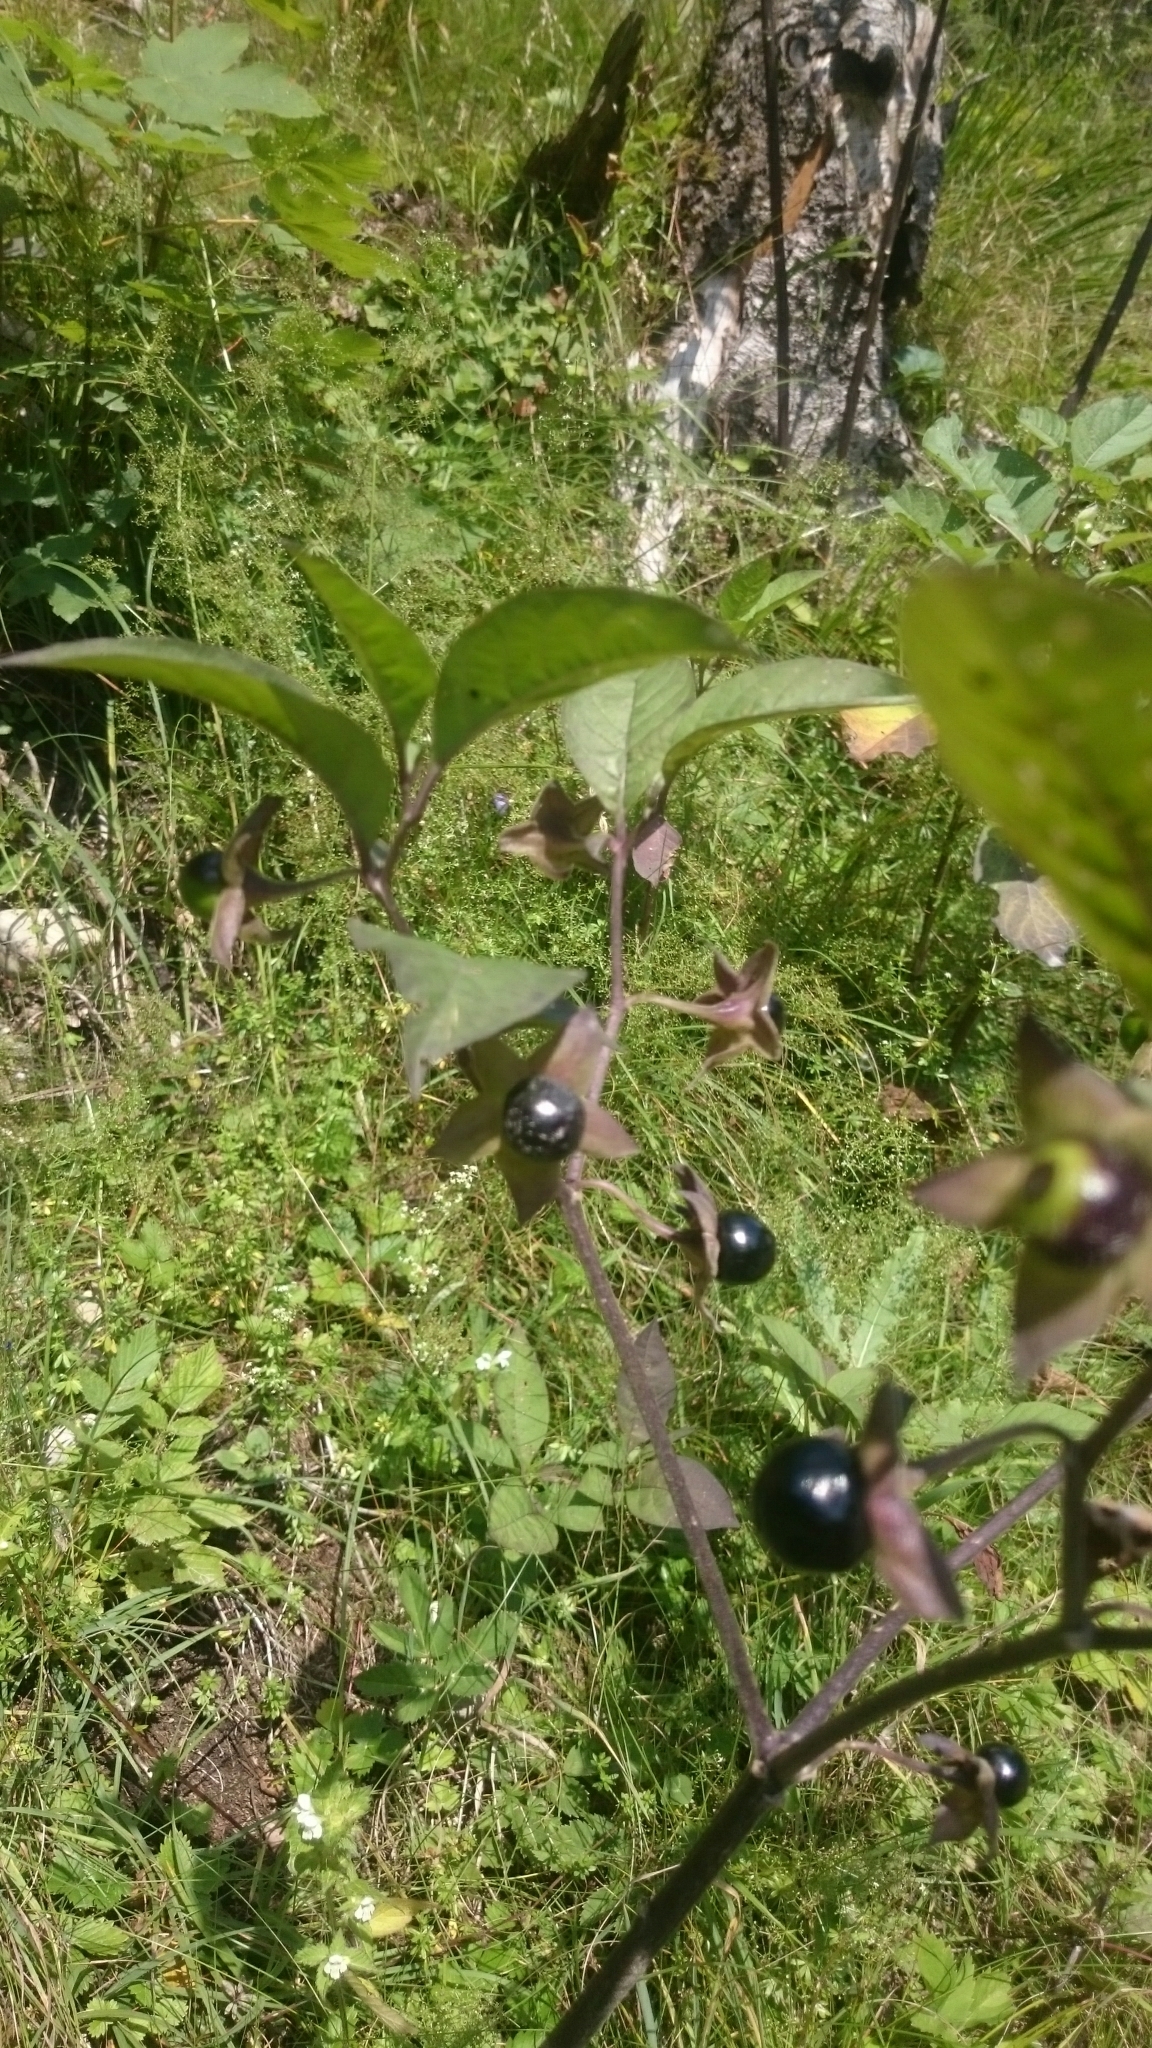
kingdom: Plantae
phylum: Tracheophyta
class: Magnoliopsida
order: Solanales
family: Solanaceae
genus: Atropa
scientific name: Atropa belladonna
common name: Deadly nightshade
